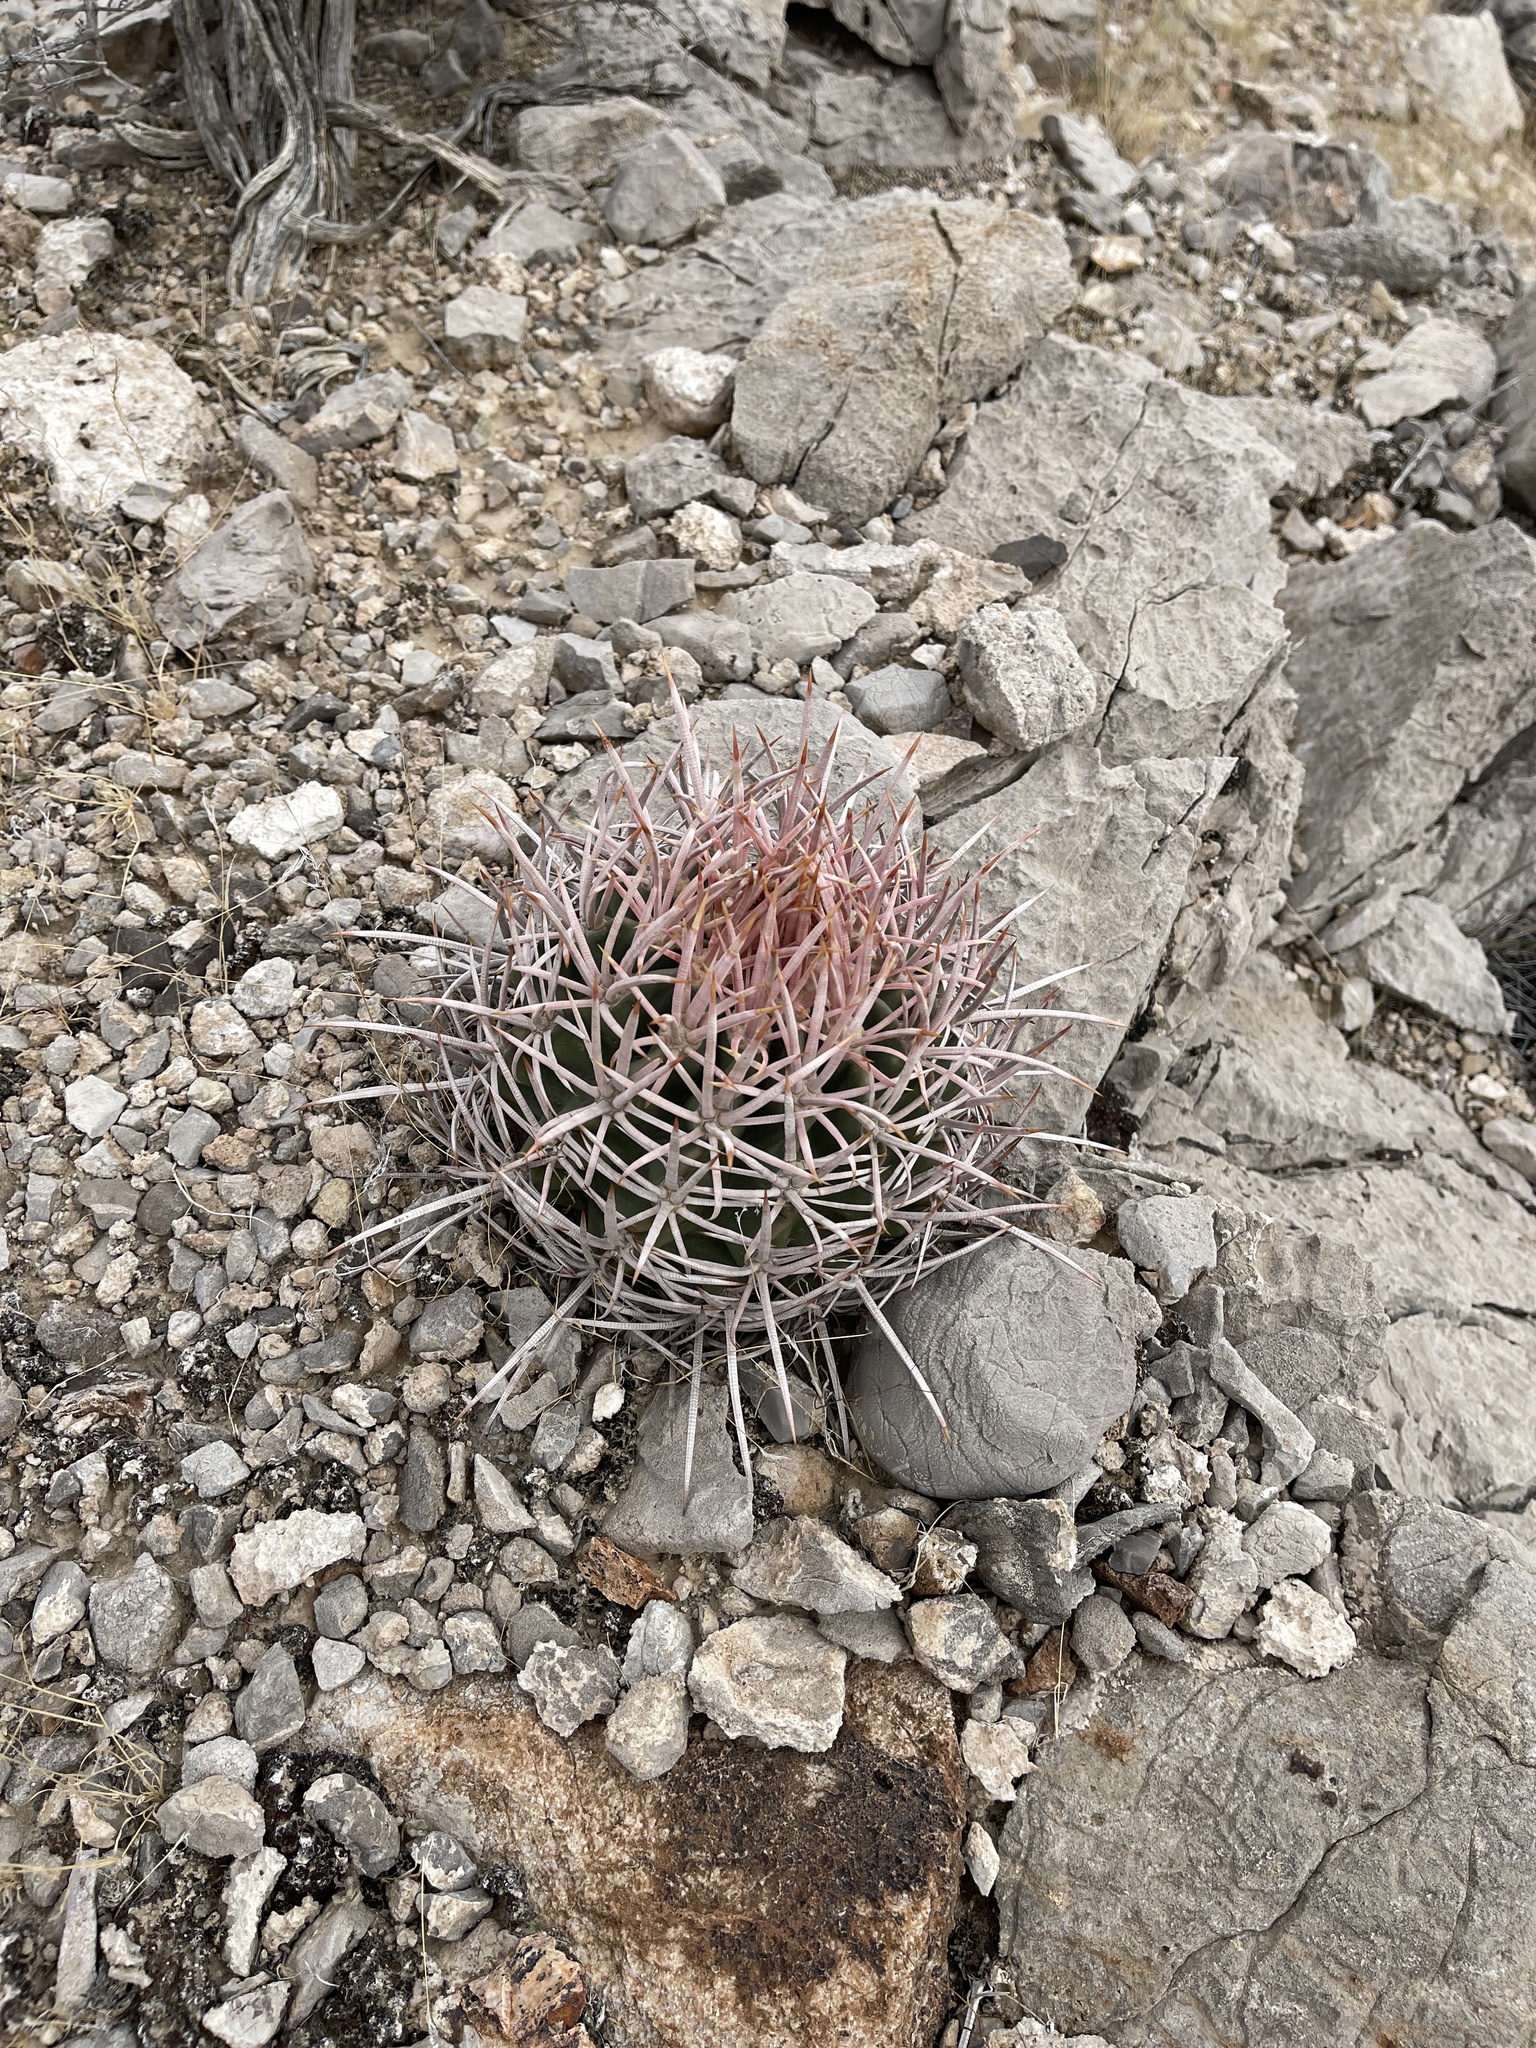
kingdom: Plantae
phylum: Tracheophyta
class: Magnoliopsida
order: Caryophyllales
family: Cactaceae
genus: Echinocactus
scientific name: Echinocactus polycephalus
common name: Cottontop cactus
